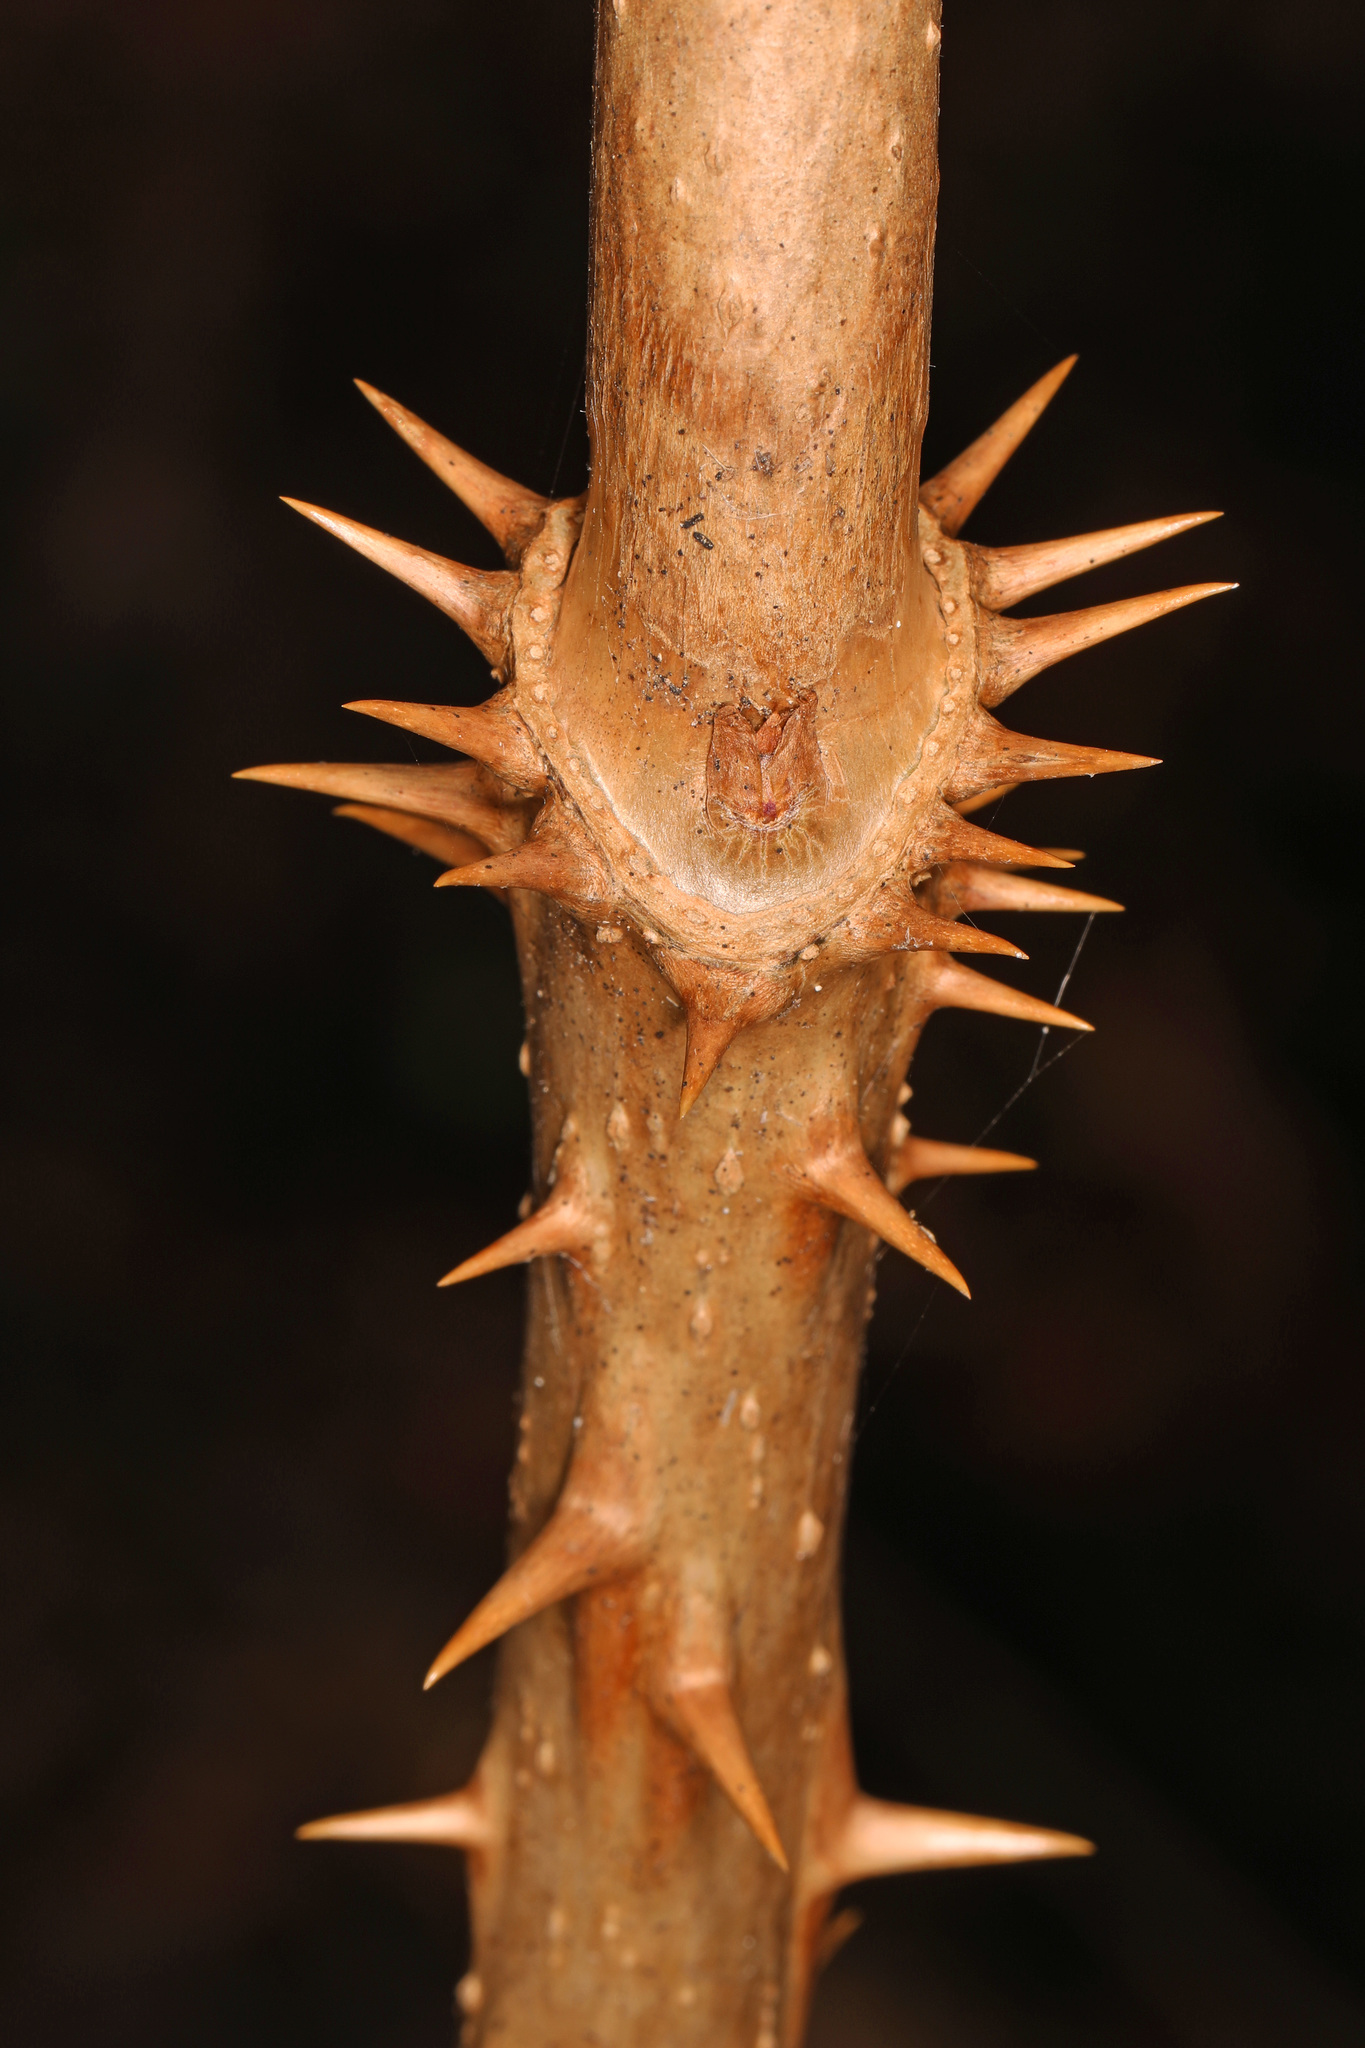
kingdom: Plantae
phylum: Tracheophyta
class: Magnoliopsida
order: Apiales
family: Araliaceae
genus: Aralia
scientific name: Aralia spinosa
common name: Hercules'-club
